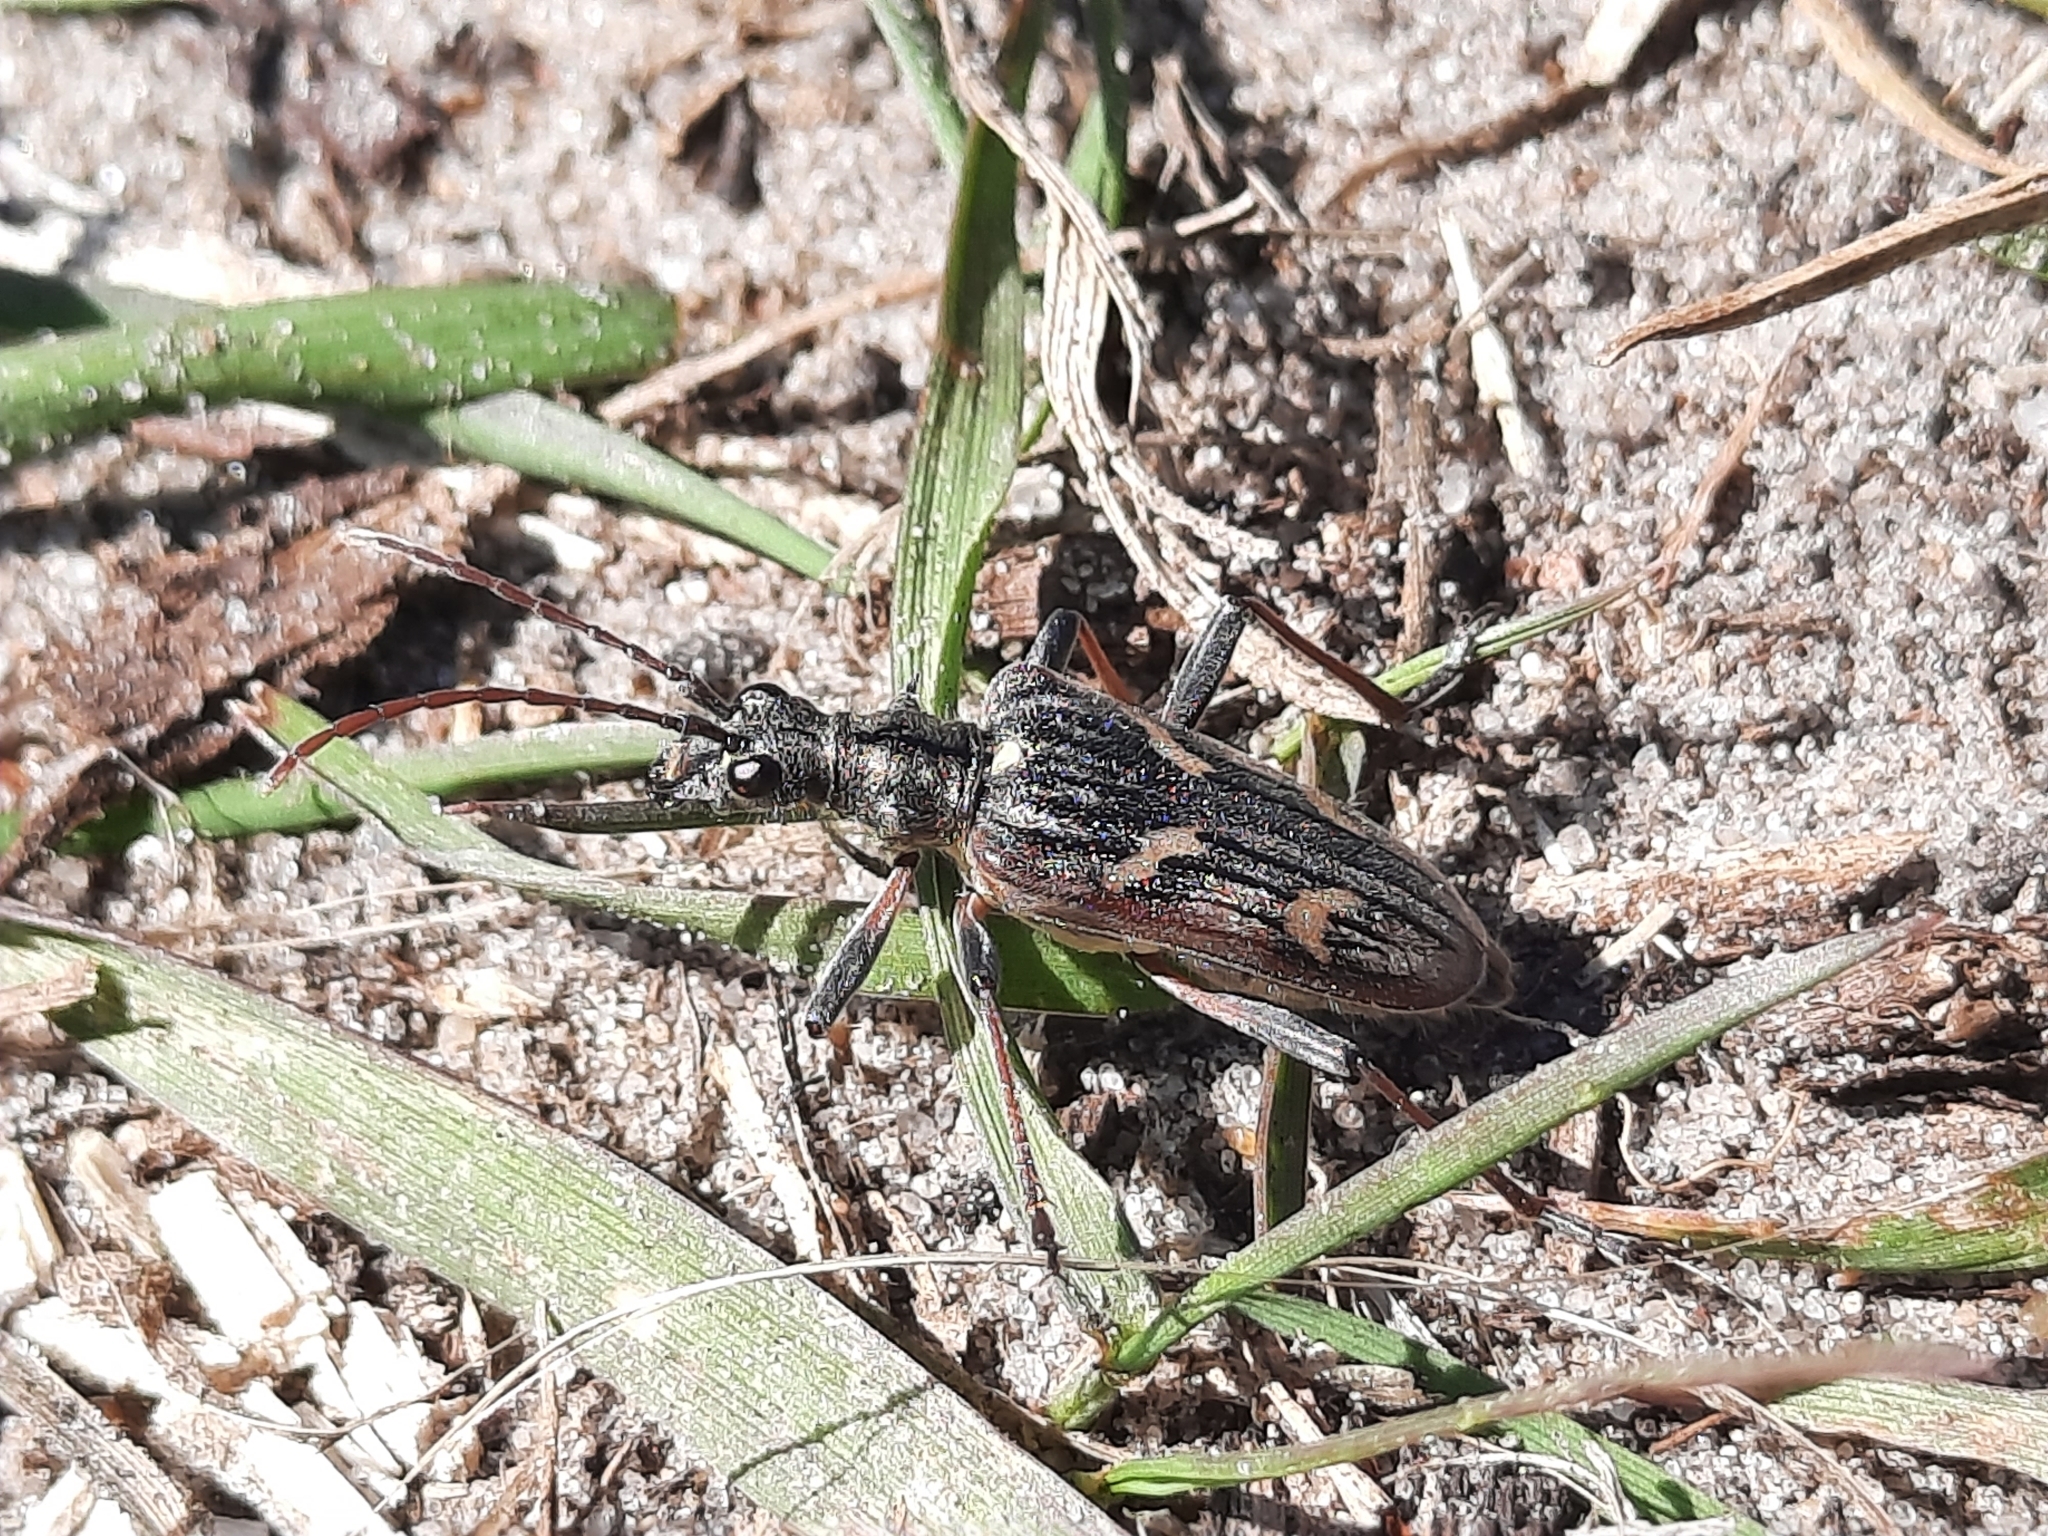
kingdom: Animalia
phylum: Arthropoda
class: Insecta
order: Coleoptera
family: Cerambycidae
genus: Rhagium
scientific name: Rhagium bifasciatum
